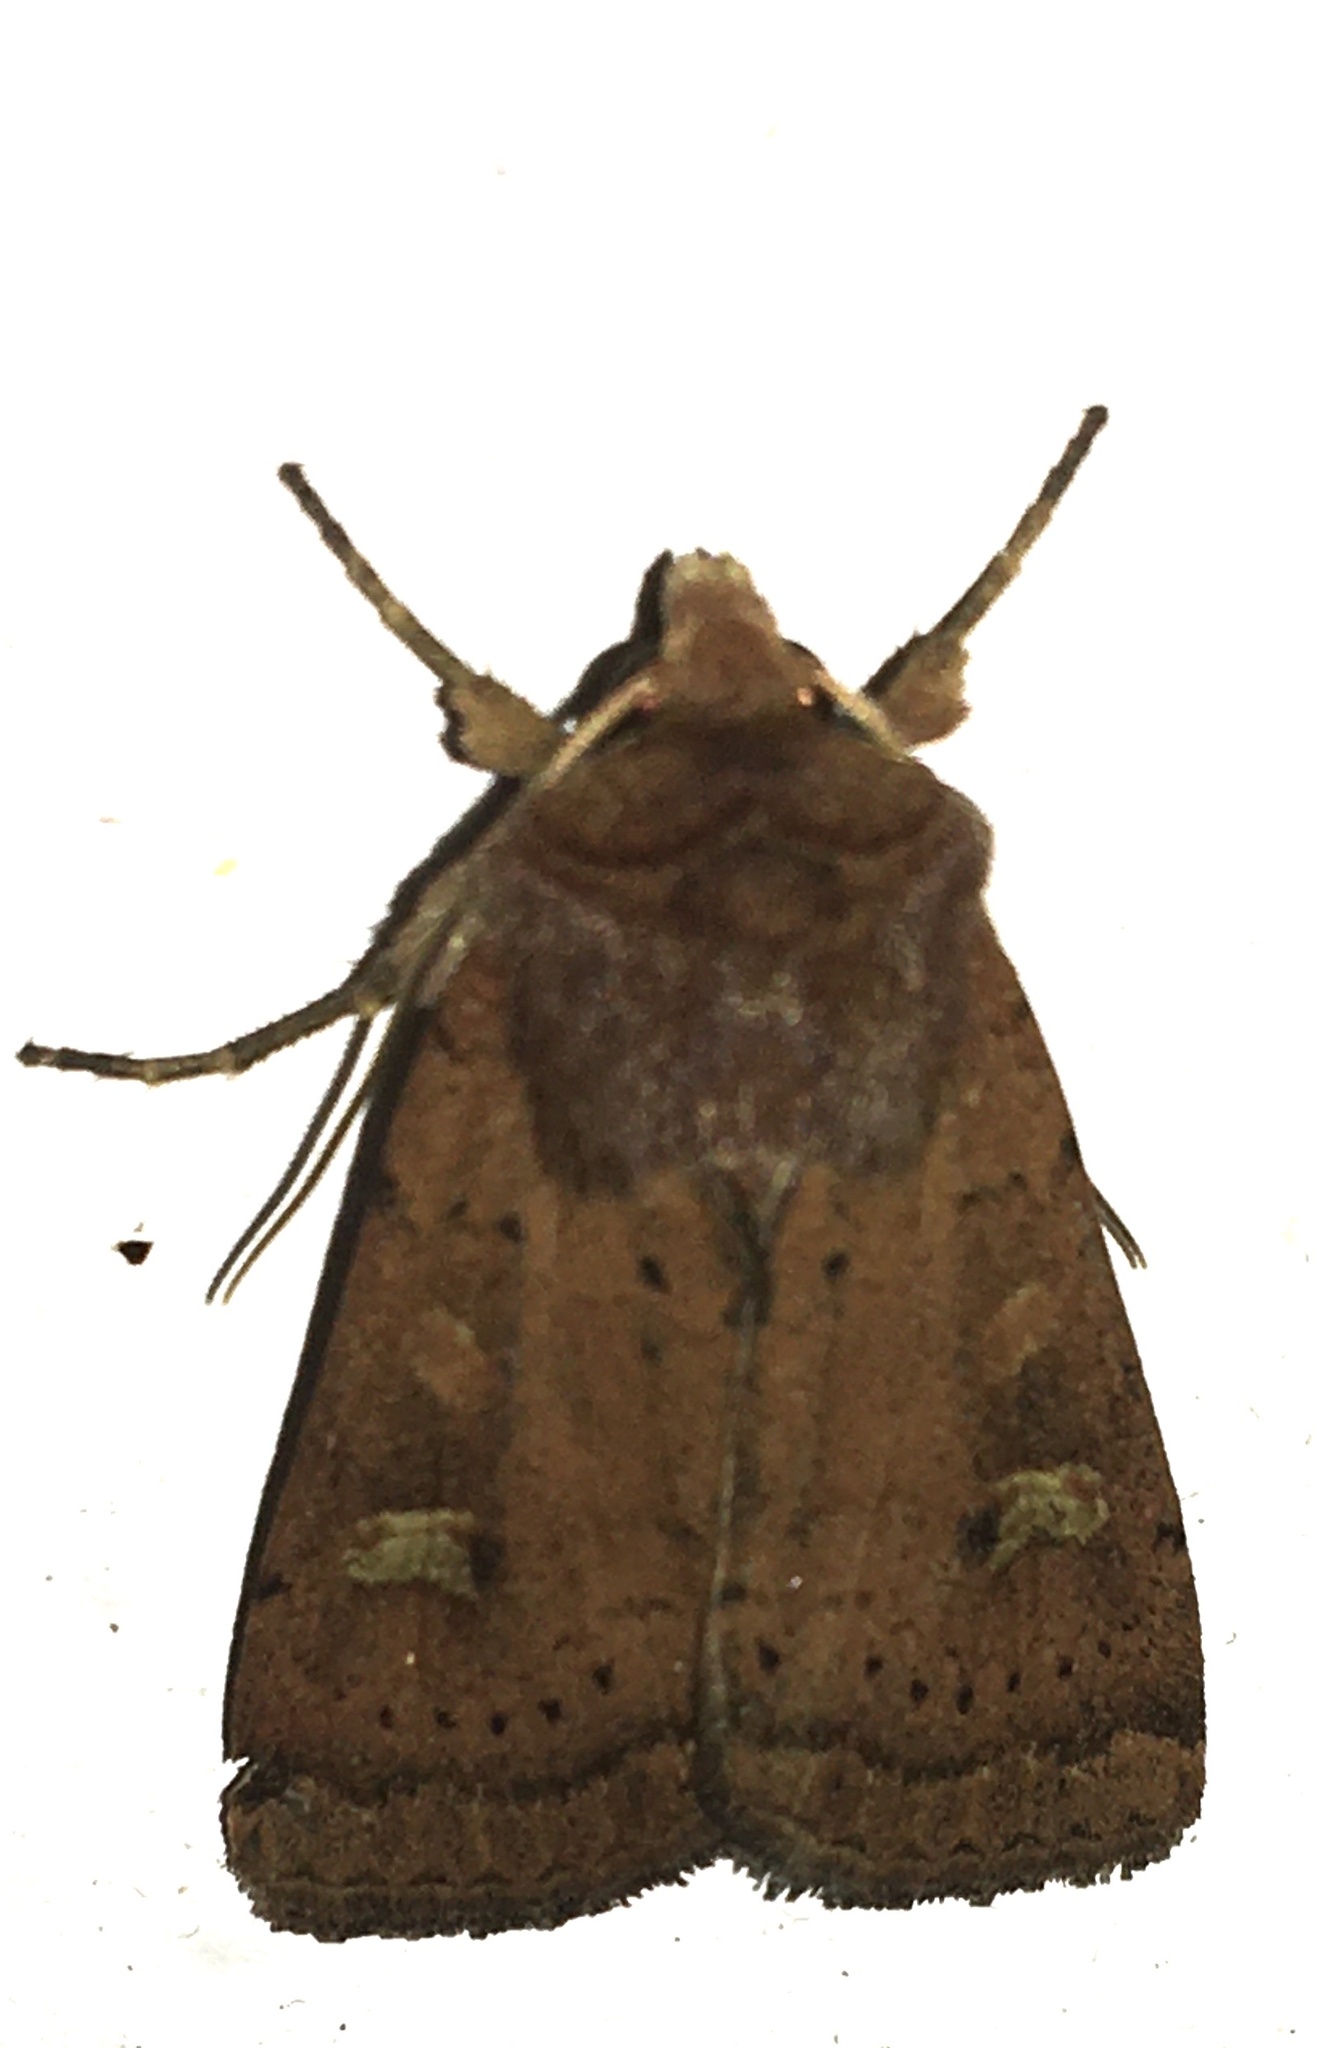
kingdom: Animalia
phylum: Arthropoda
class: Insecta
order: Lepidoptera
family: Noctuidae
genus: Xestia
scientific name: Xestia xanthographa
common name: Square-spot rustic
